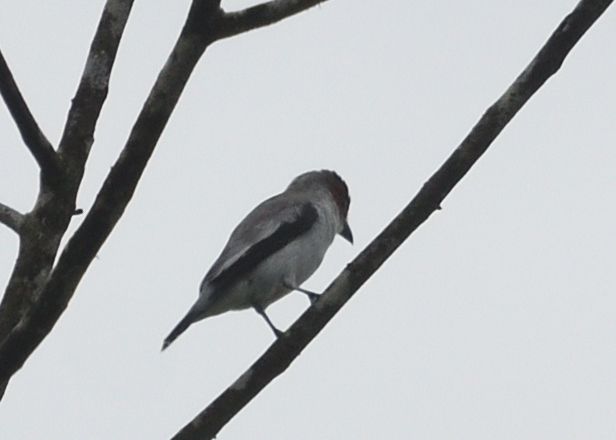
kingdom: Animalia
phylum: Chordata
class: Aves
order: Passeriformes
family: Cotingidae
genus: Tityra
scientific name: Tityra inquisitor
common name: Black-crowned tityra
